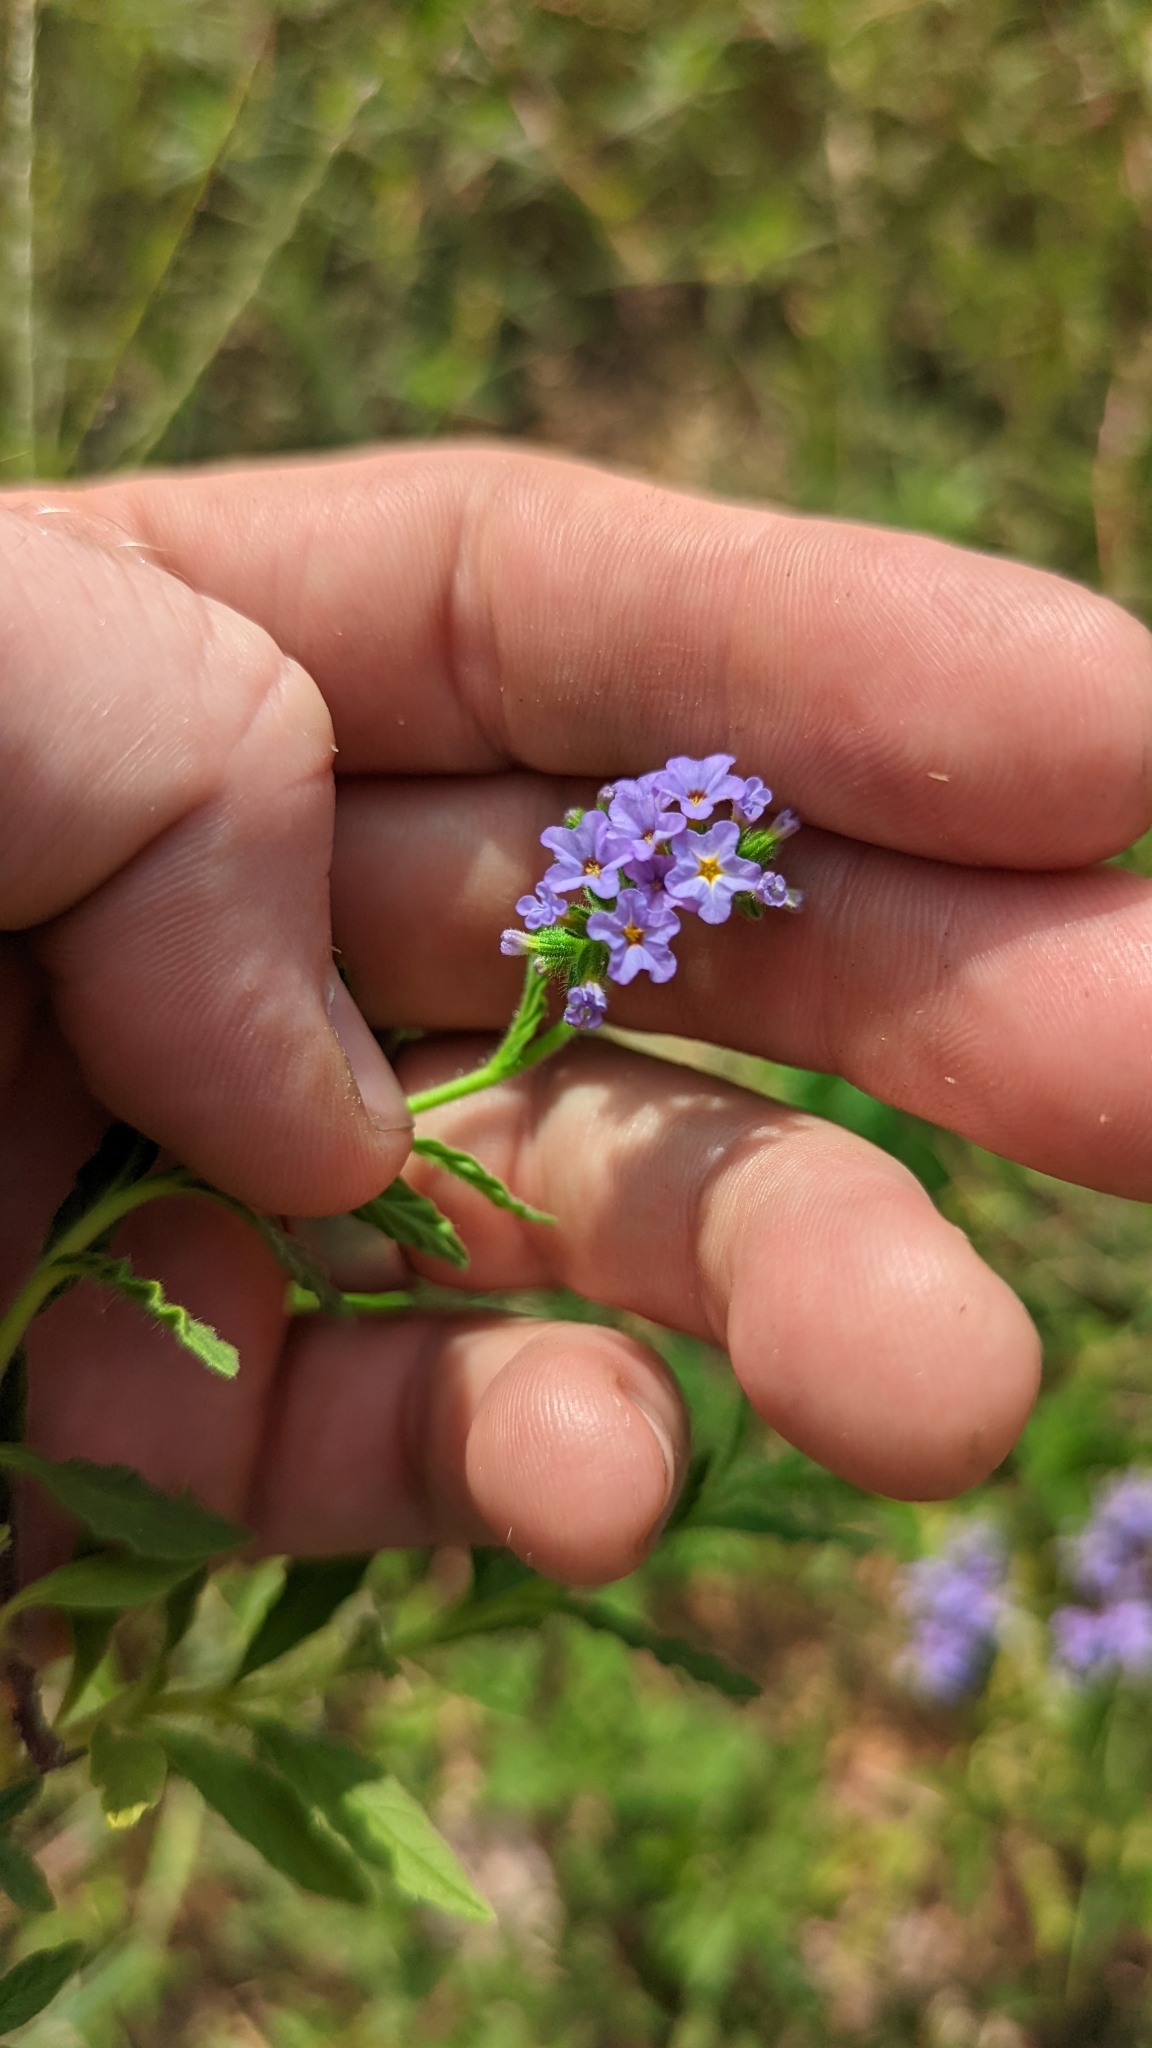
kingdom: Plantae
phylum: Tracheophyta
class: Magnoliopsida
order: Lamiales
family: Verbenaceae
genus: Verbena
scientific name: Verbena bipinnatifida
